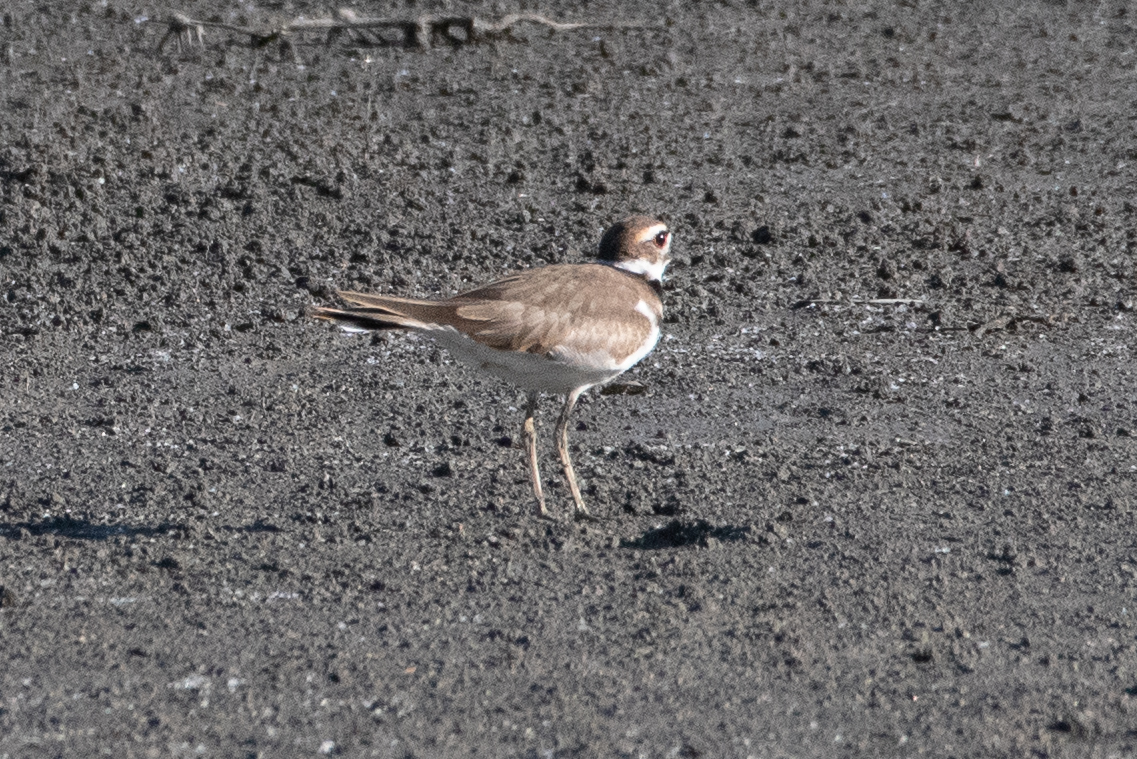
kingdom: Animalia
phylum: Chordata
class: Aves
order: Charadriiformes
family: Charadriidae
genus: Charadrius
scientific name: Charadrius vociferus
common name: Killdeer
